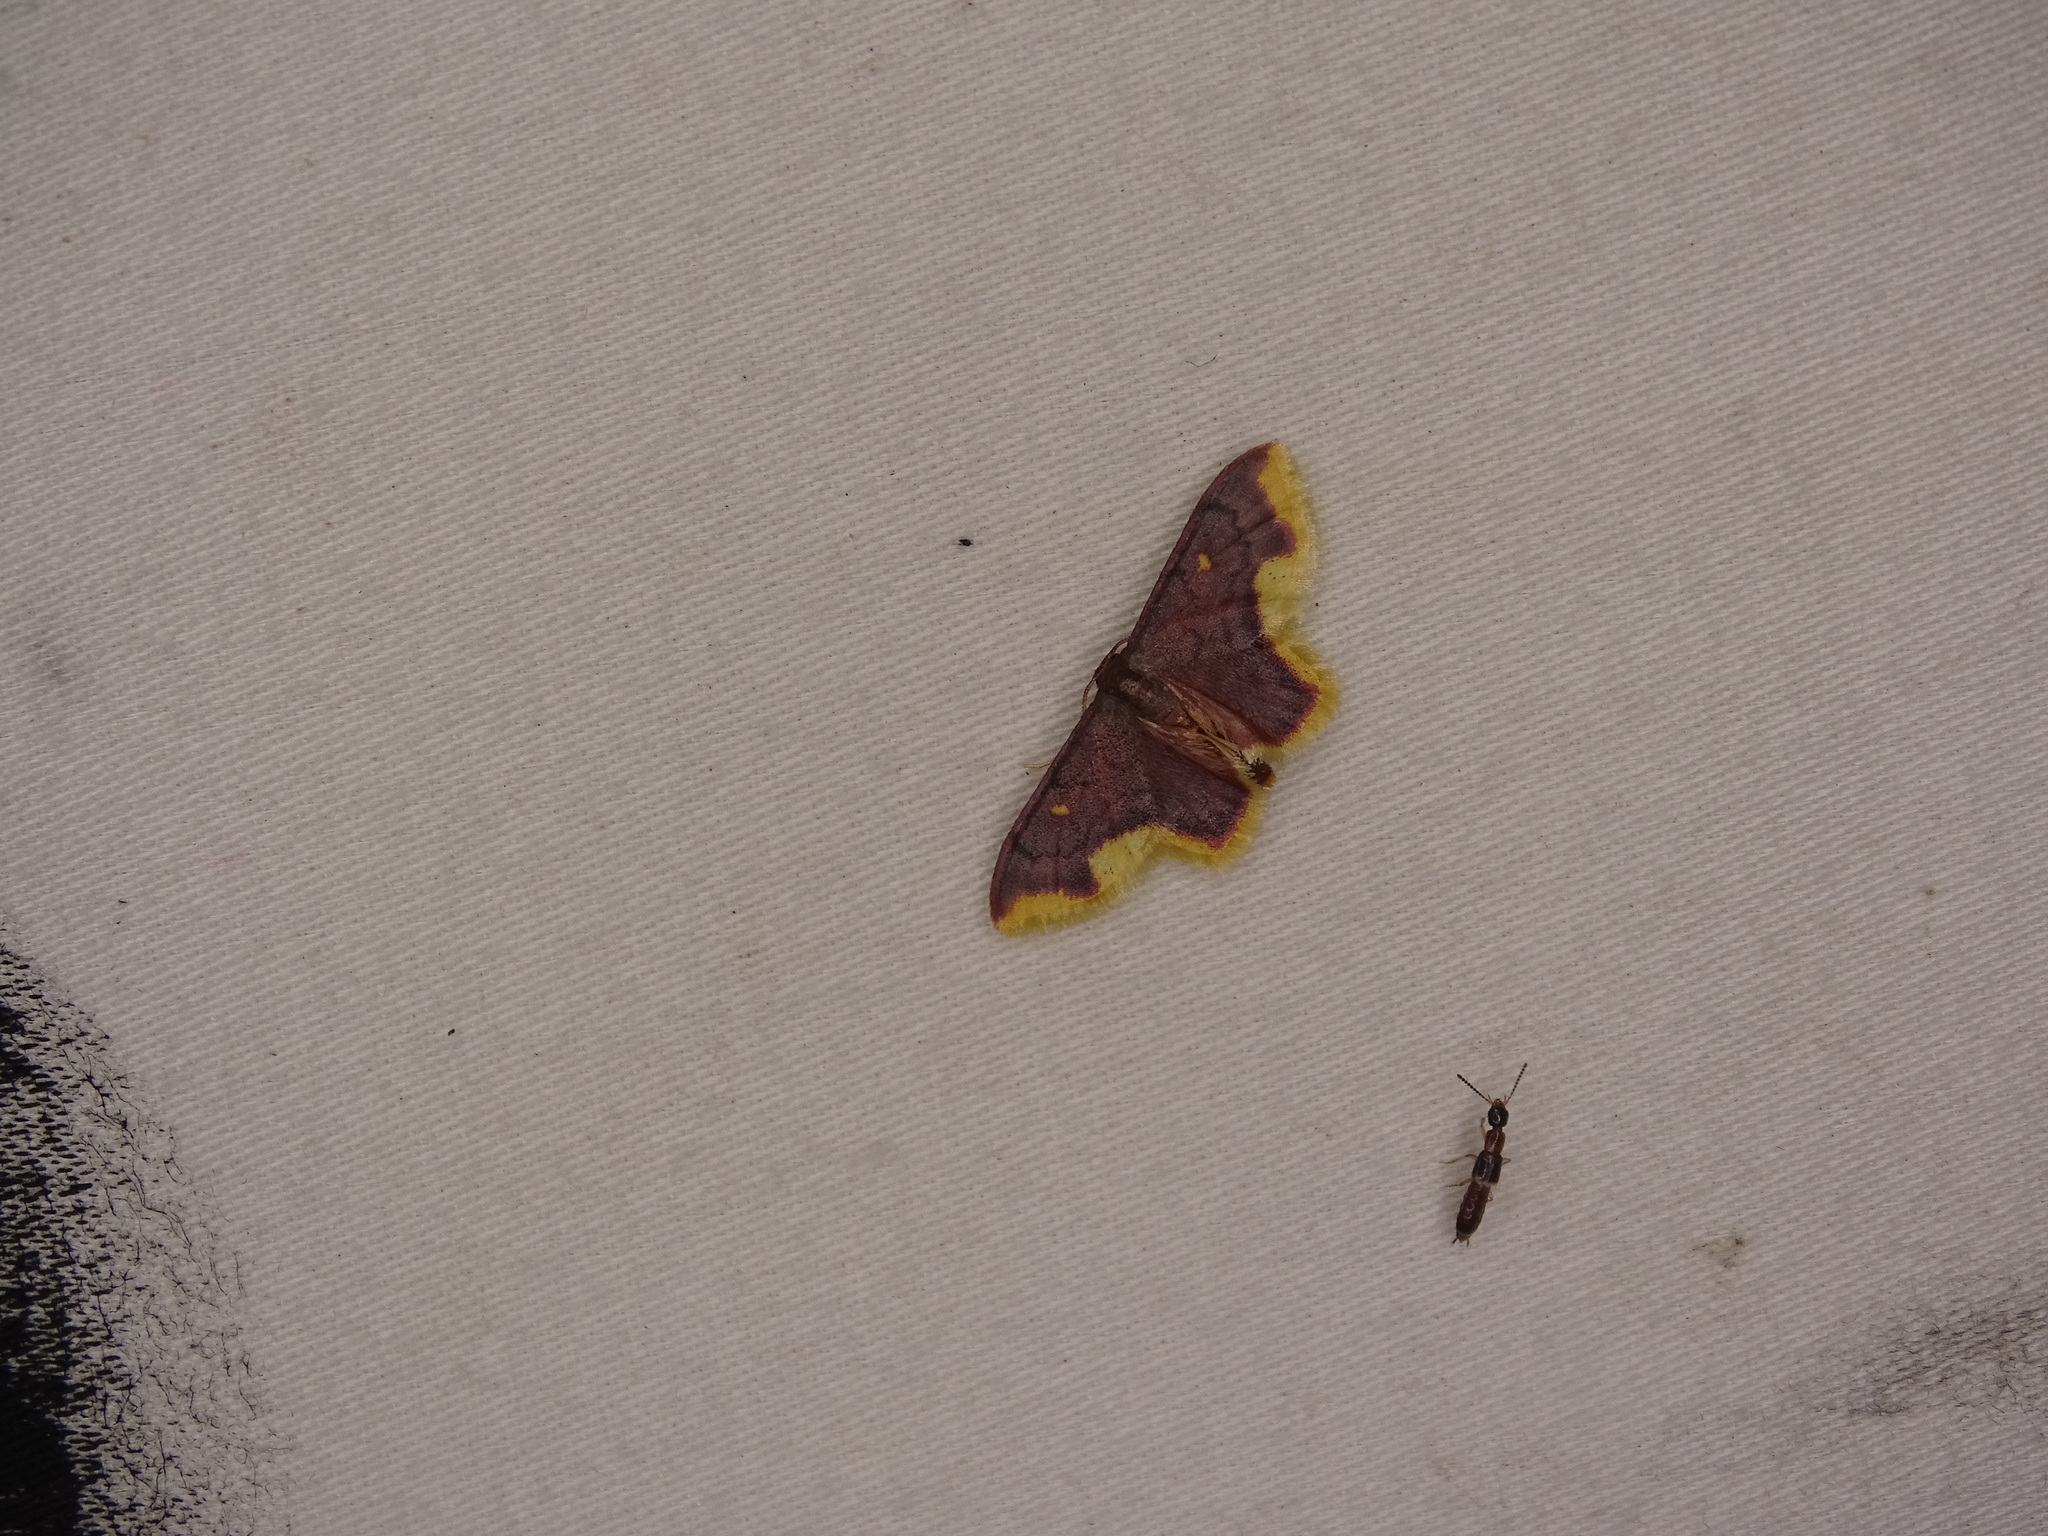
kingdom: Animalia
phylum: Arthropoda
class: Insecta
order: Lepidoptera
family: Geometridae
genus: Lophosis
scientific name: Lophosis labeculata
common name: Stained lophosis moth
